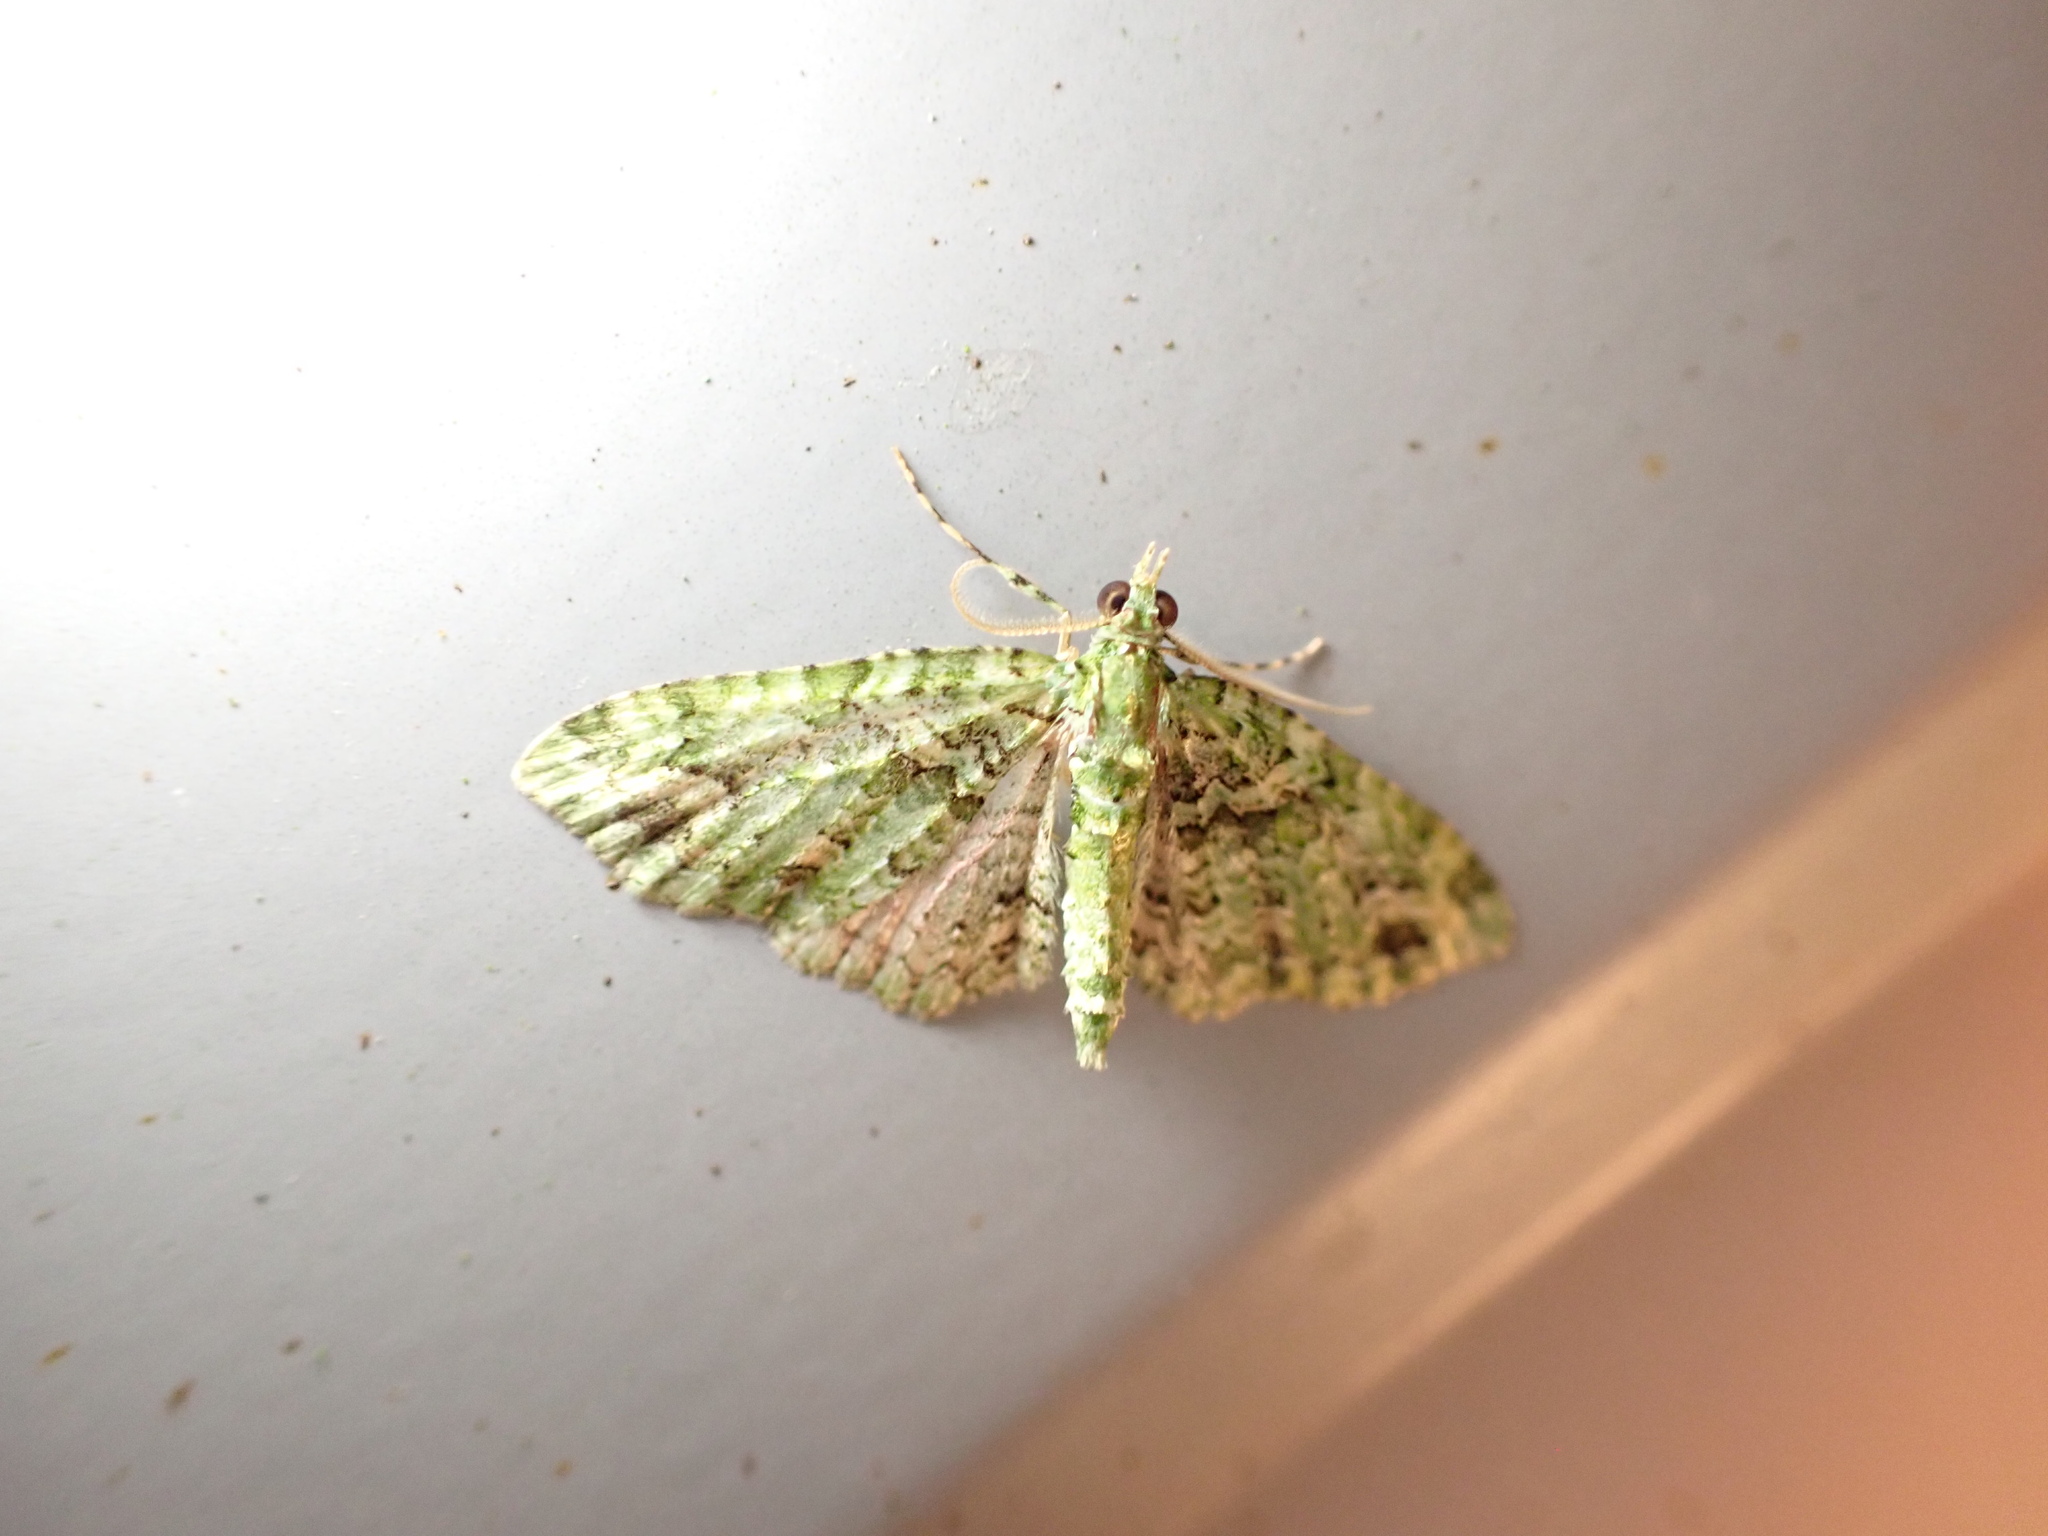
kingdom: Animalia
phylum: Arthropoda
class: Insecta
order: Lepidoptera
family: Geometridae
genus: Pasiphila
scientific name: Pasiphila muscosata
